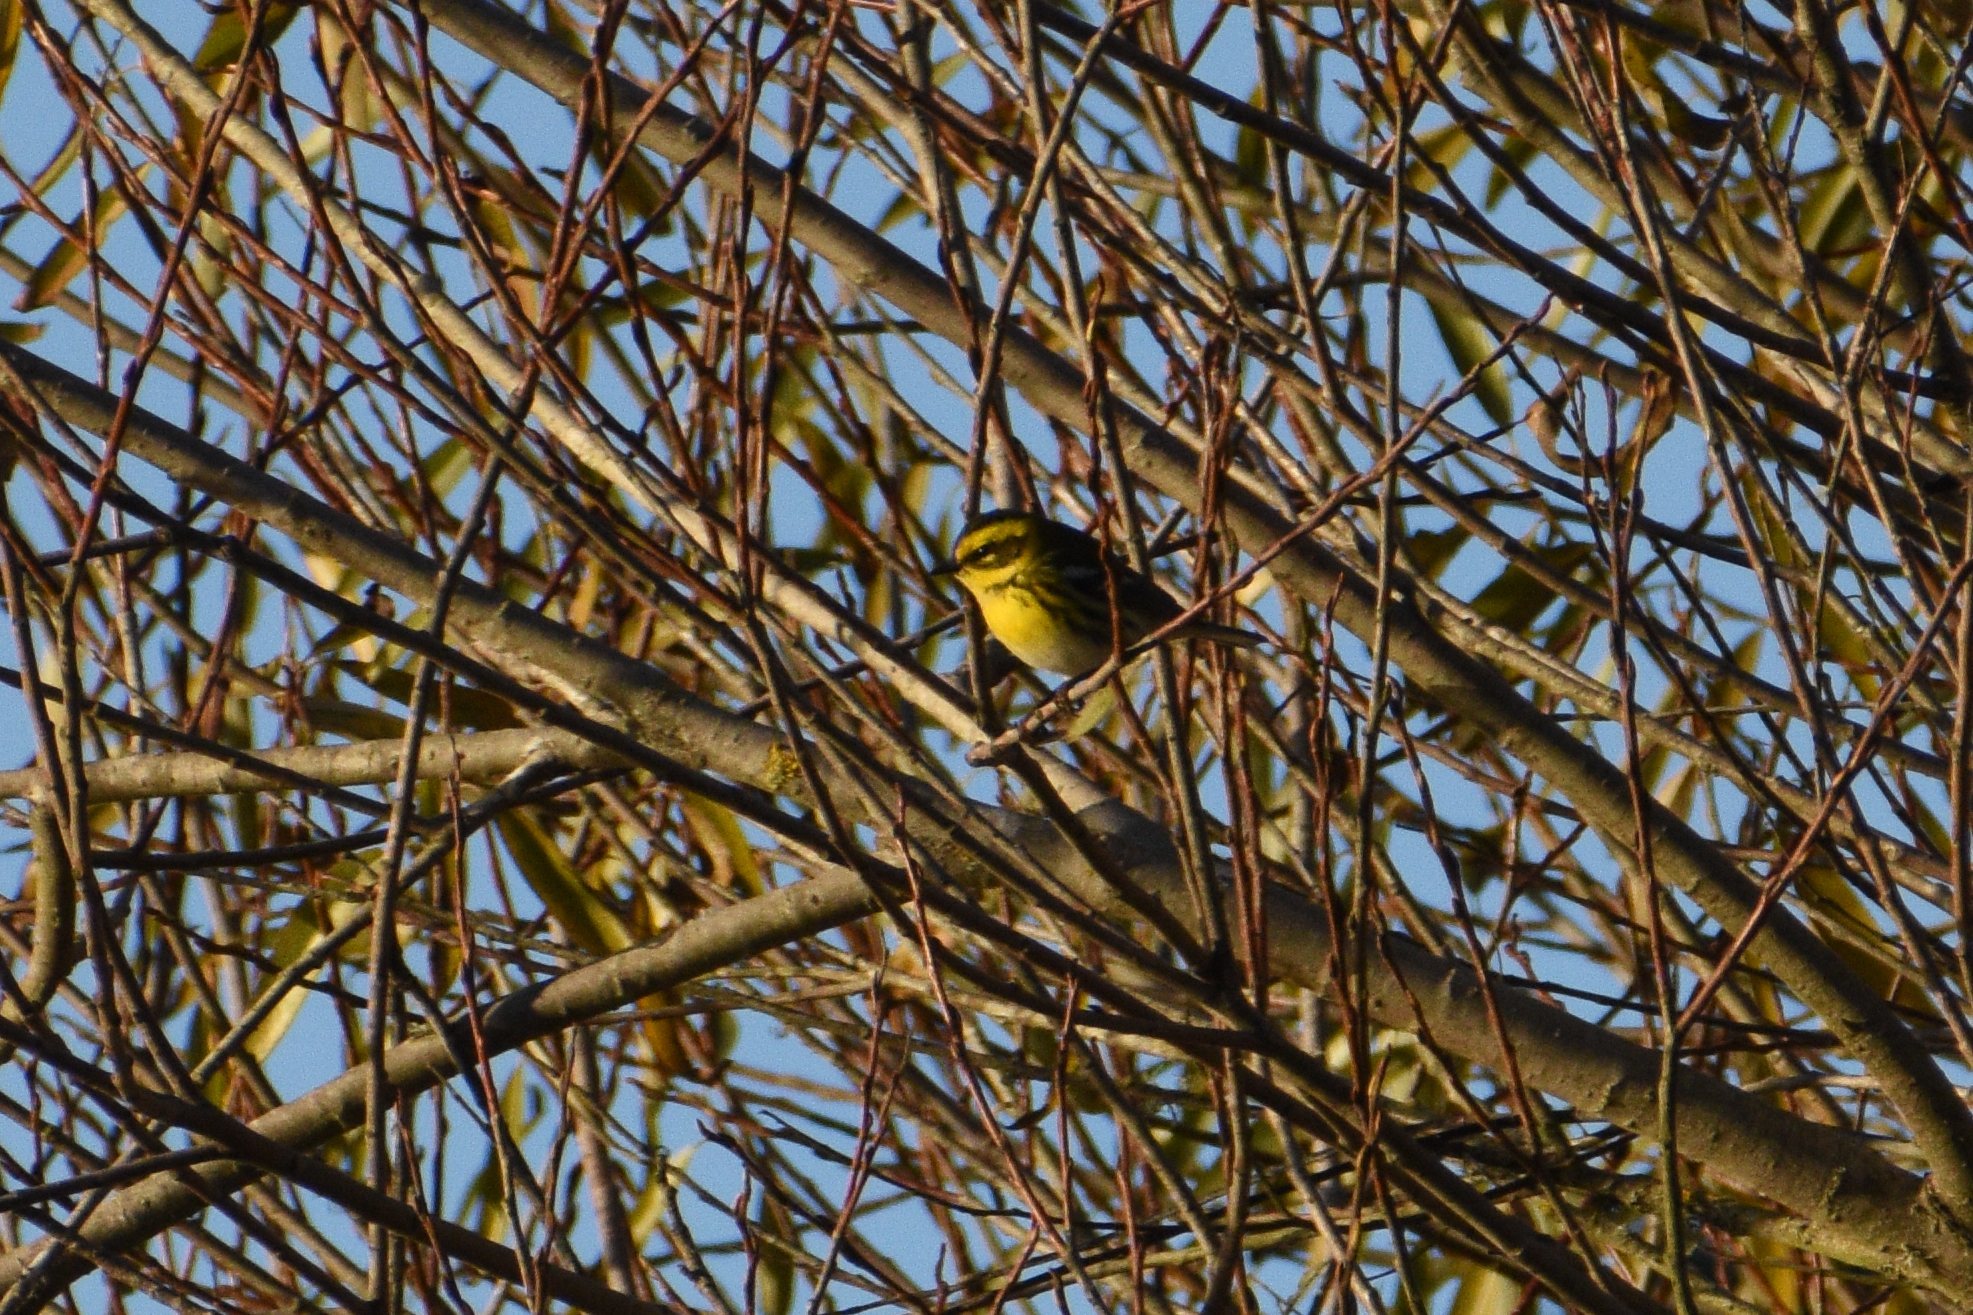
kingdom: Animalia
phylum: Chordata
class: Aves
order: Passeriformes
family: Parulidae
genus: Setophaga
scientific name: Setophaga townsendi
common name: Townsend's warbler
